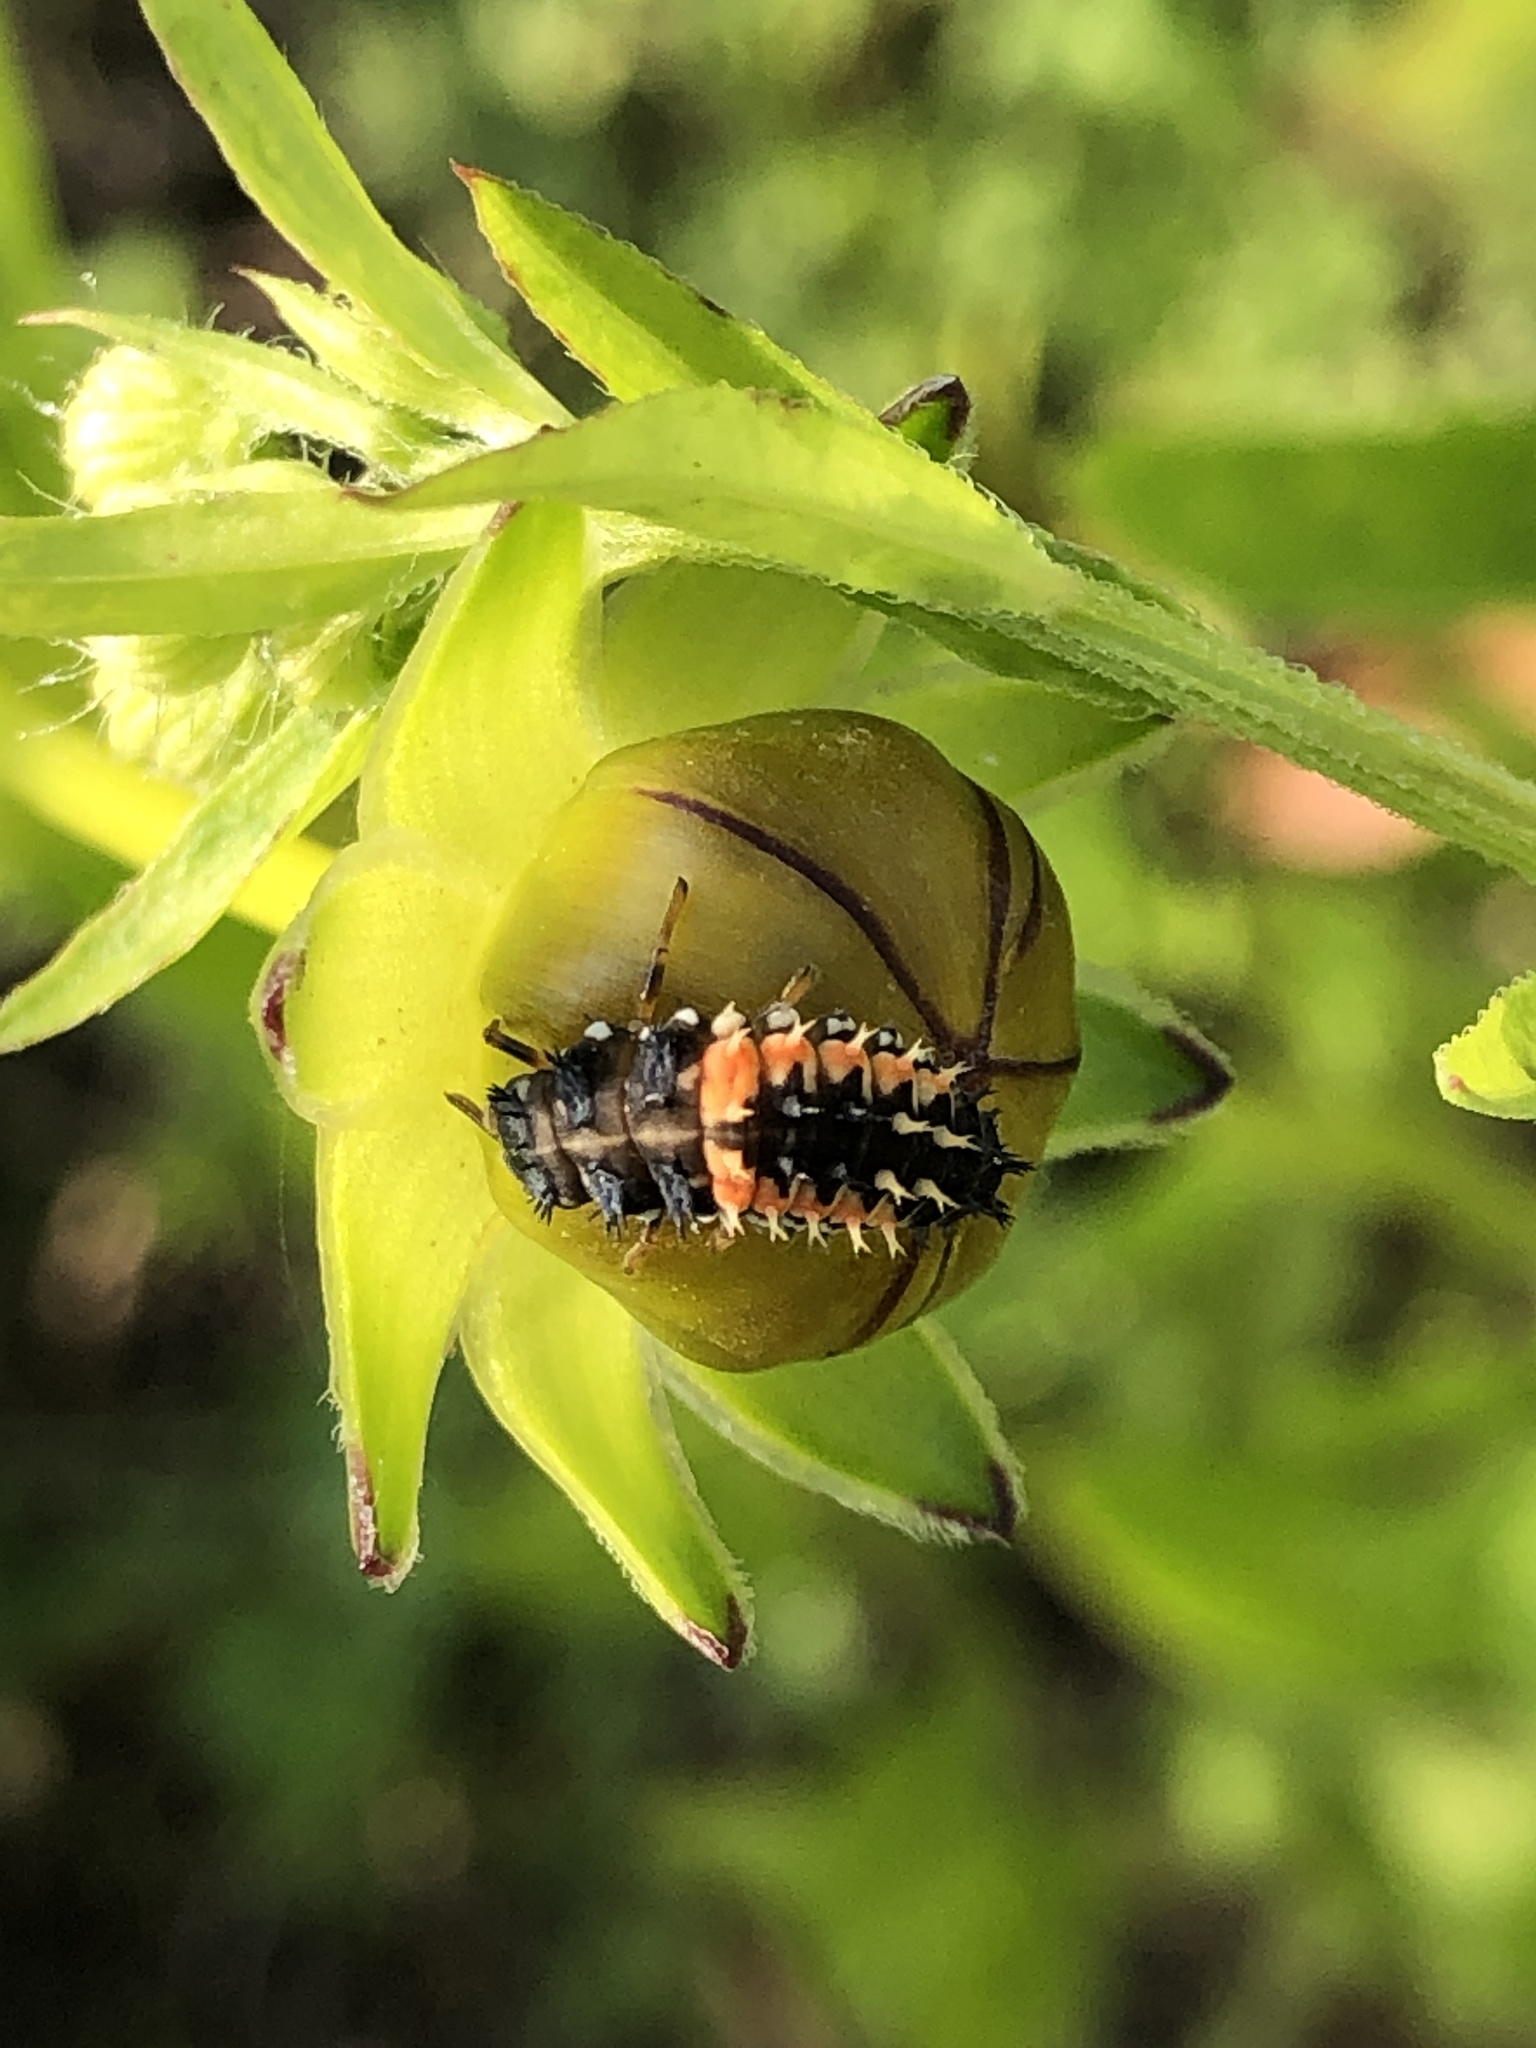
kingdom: Animalia
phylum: Arthropoda
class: Insecta
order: Coleoptera
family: Coccinellidae
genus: Harmonia
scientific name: Harmonia axyridis
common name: Harlequin ladybird
